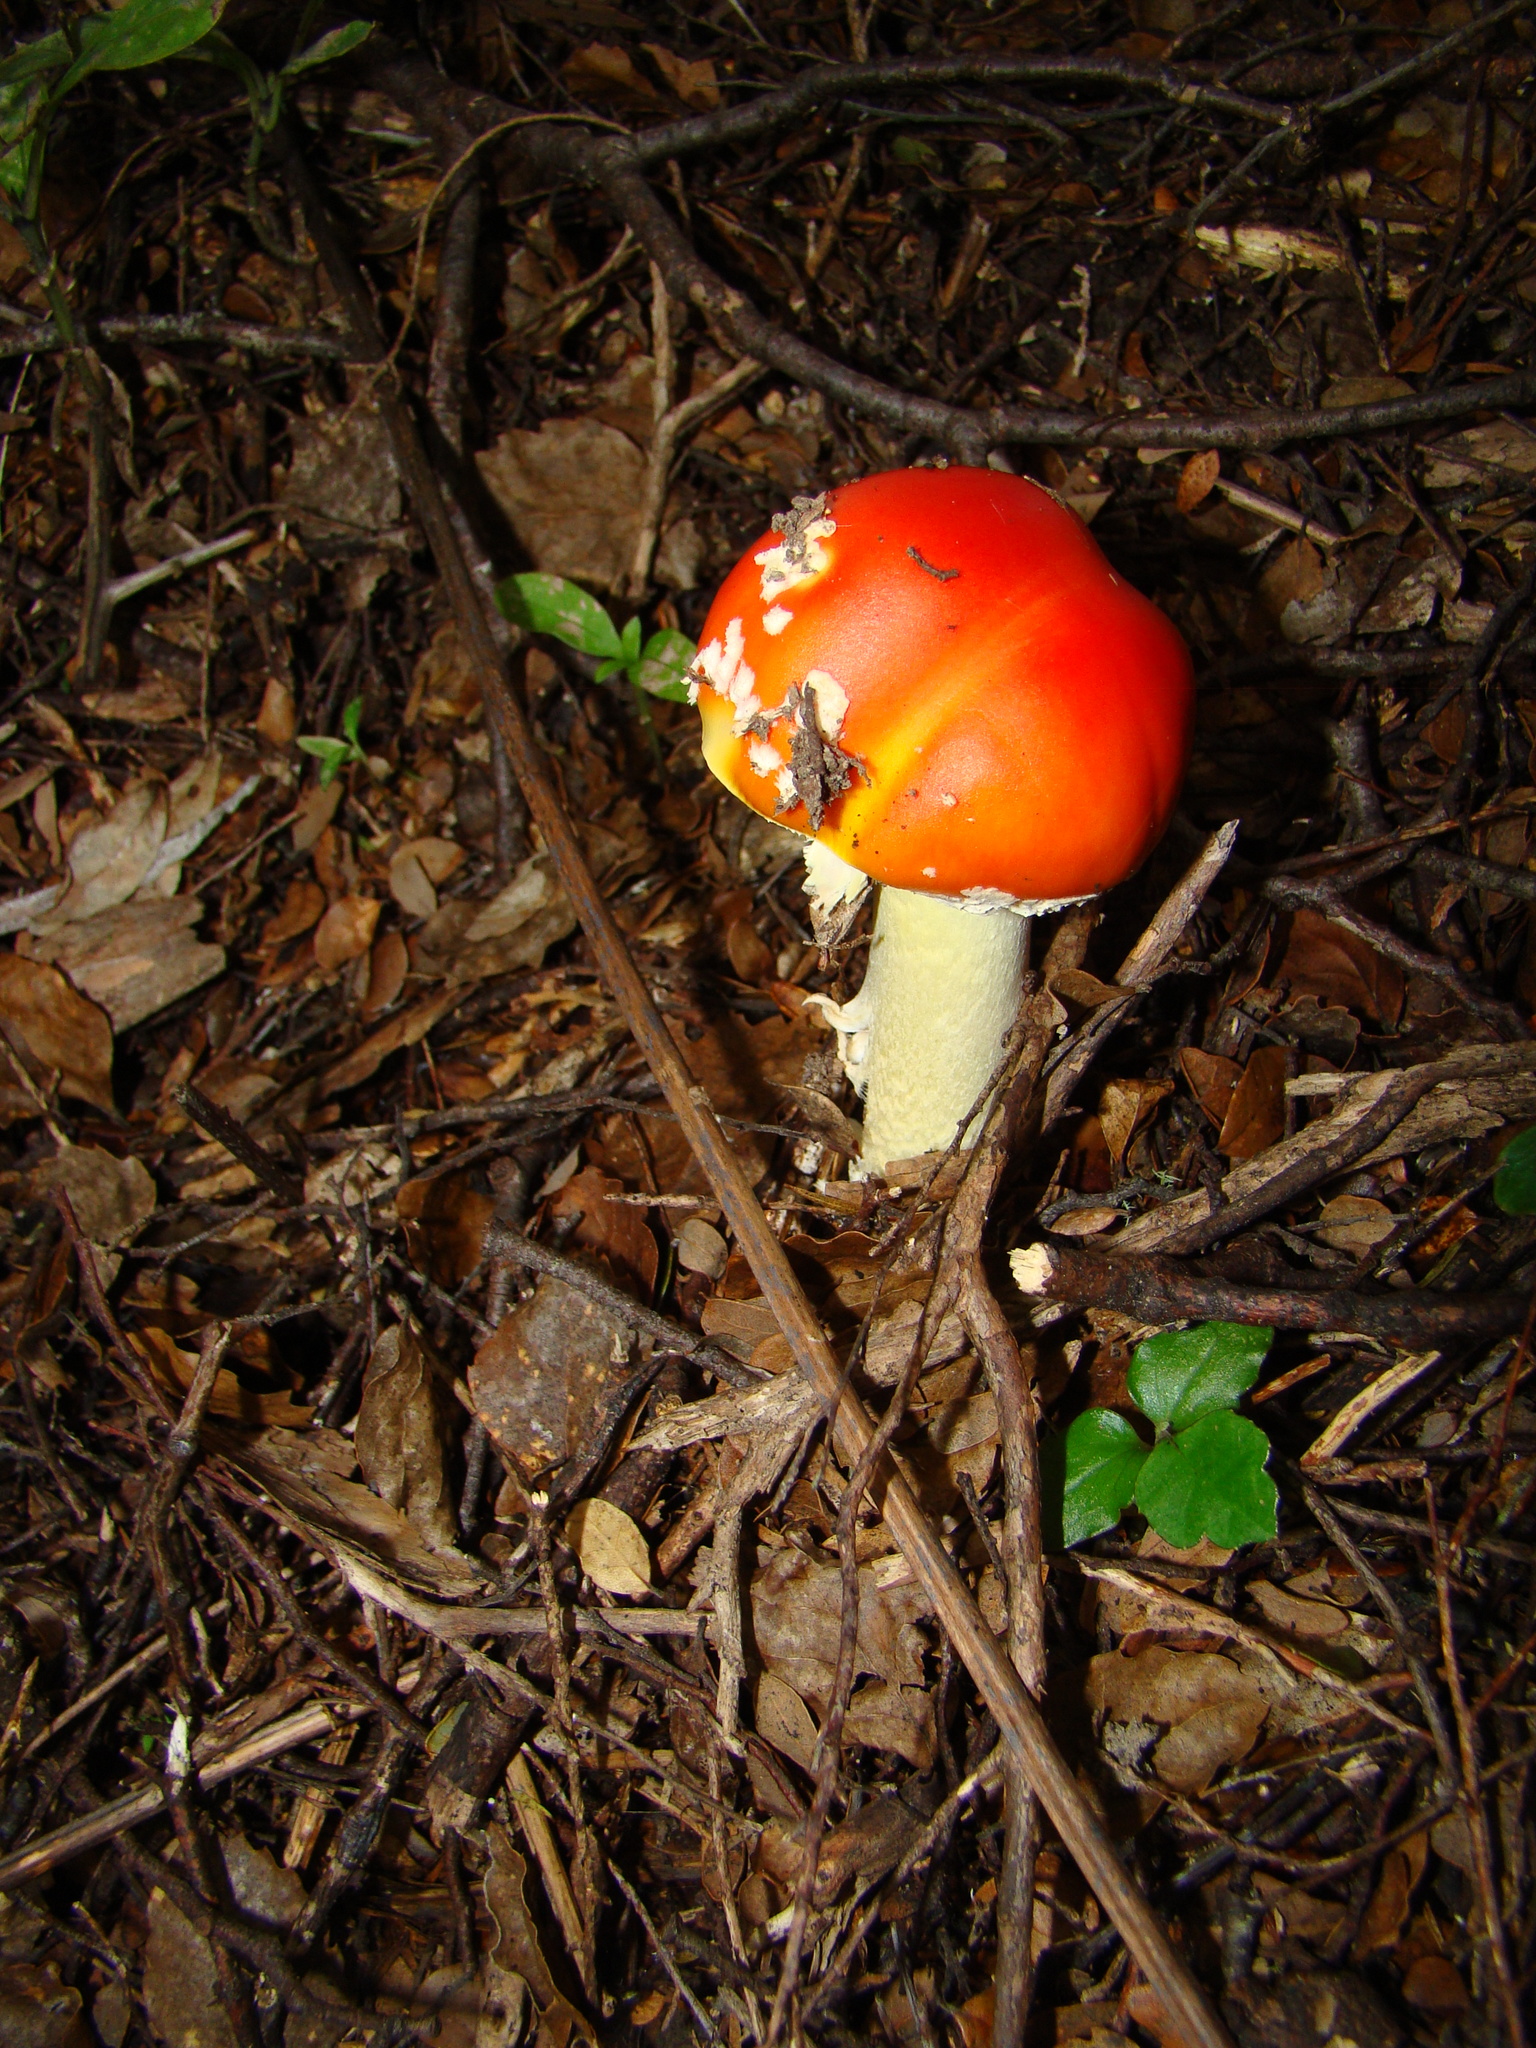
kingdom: Fungi
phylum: Basidiomycota
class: Agaricomycetes
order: Agaricales
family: Amanitaceae
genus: Amanita
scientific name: Amanita muscaria
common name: Fly agaric
